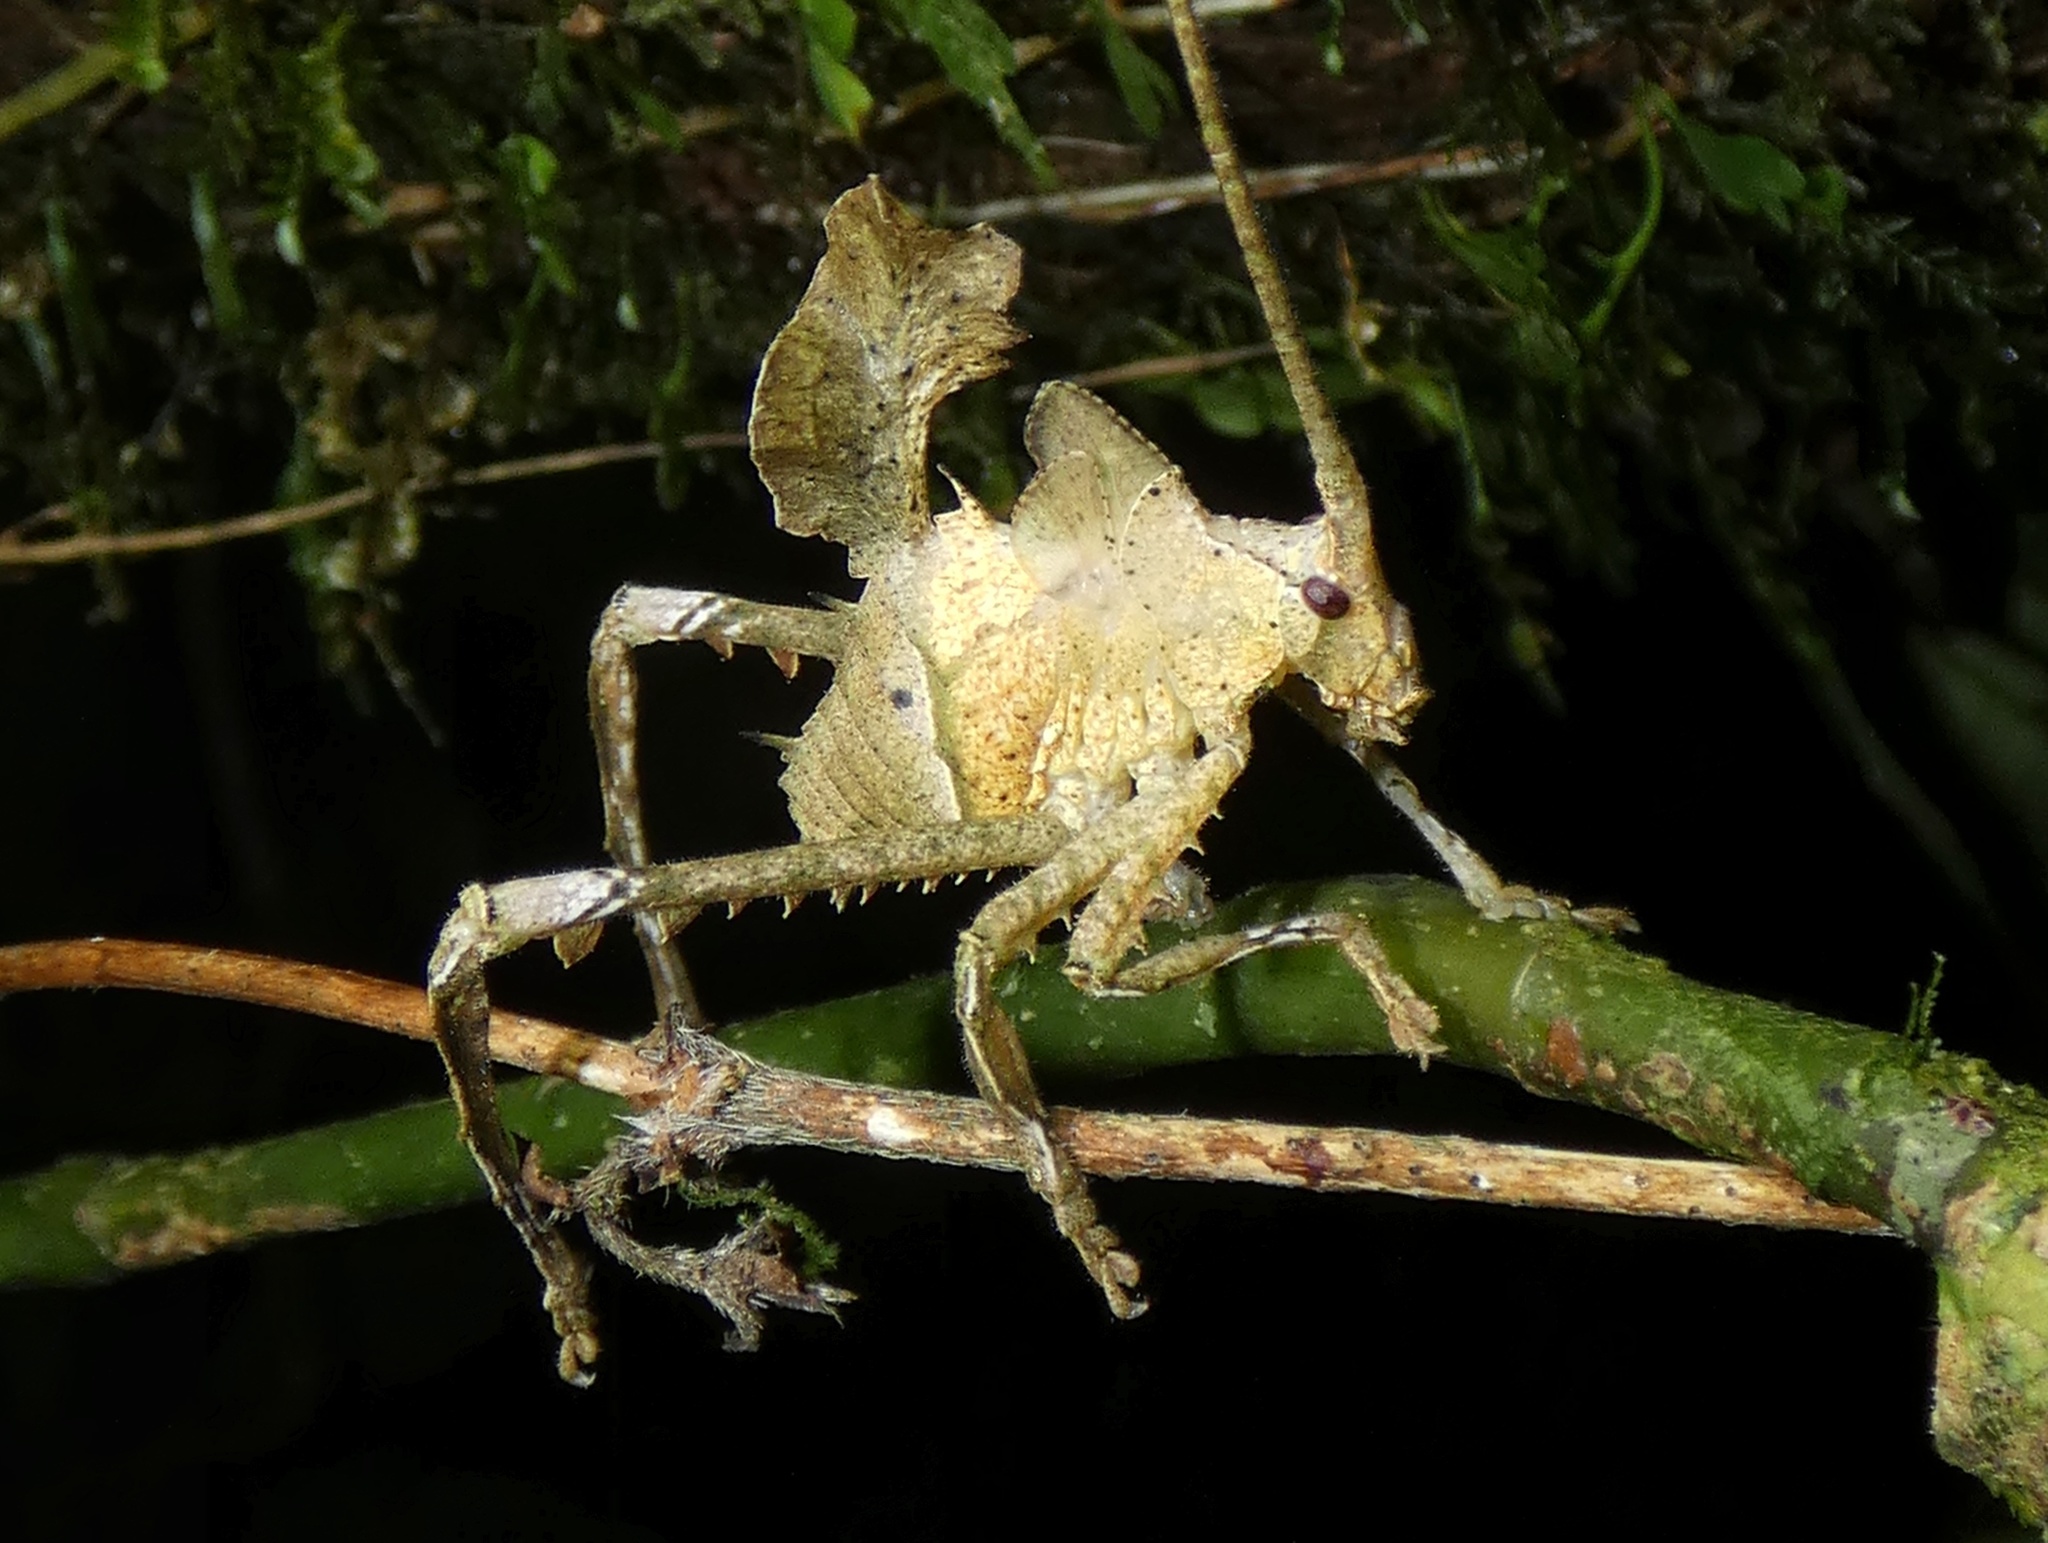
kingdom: Animalia
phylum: Arthropoda
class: Insecta
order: Orthoptera
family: Tettigoniidae
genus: Celidophylla
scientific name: Celidophylla albimacula
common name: Giant sylvan leaf katydid
